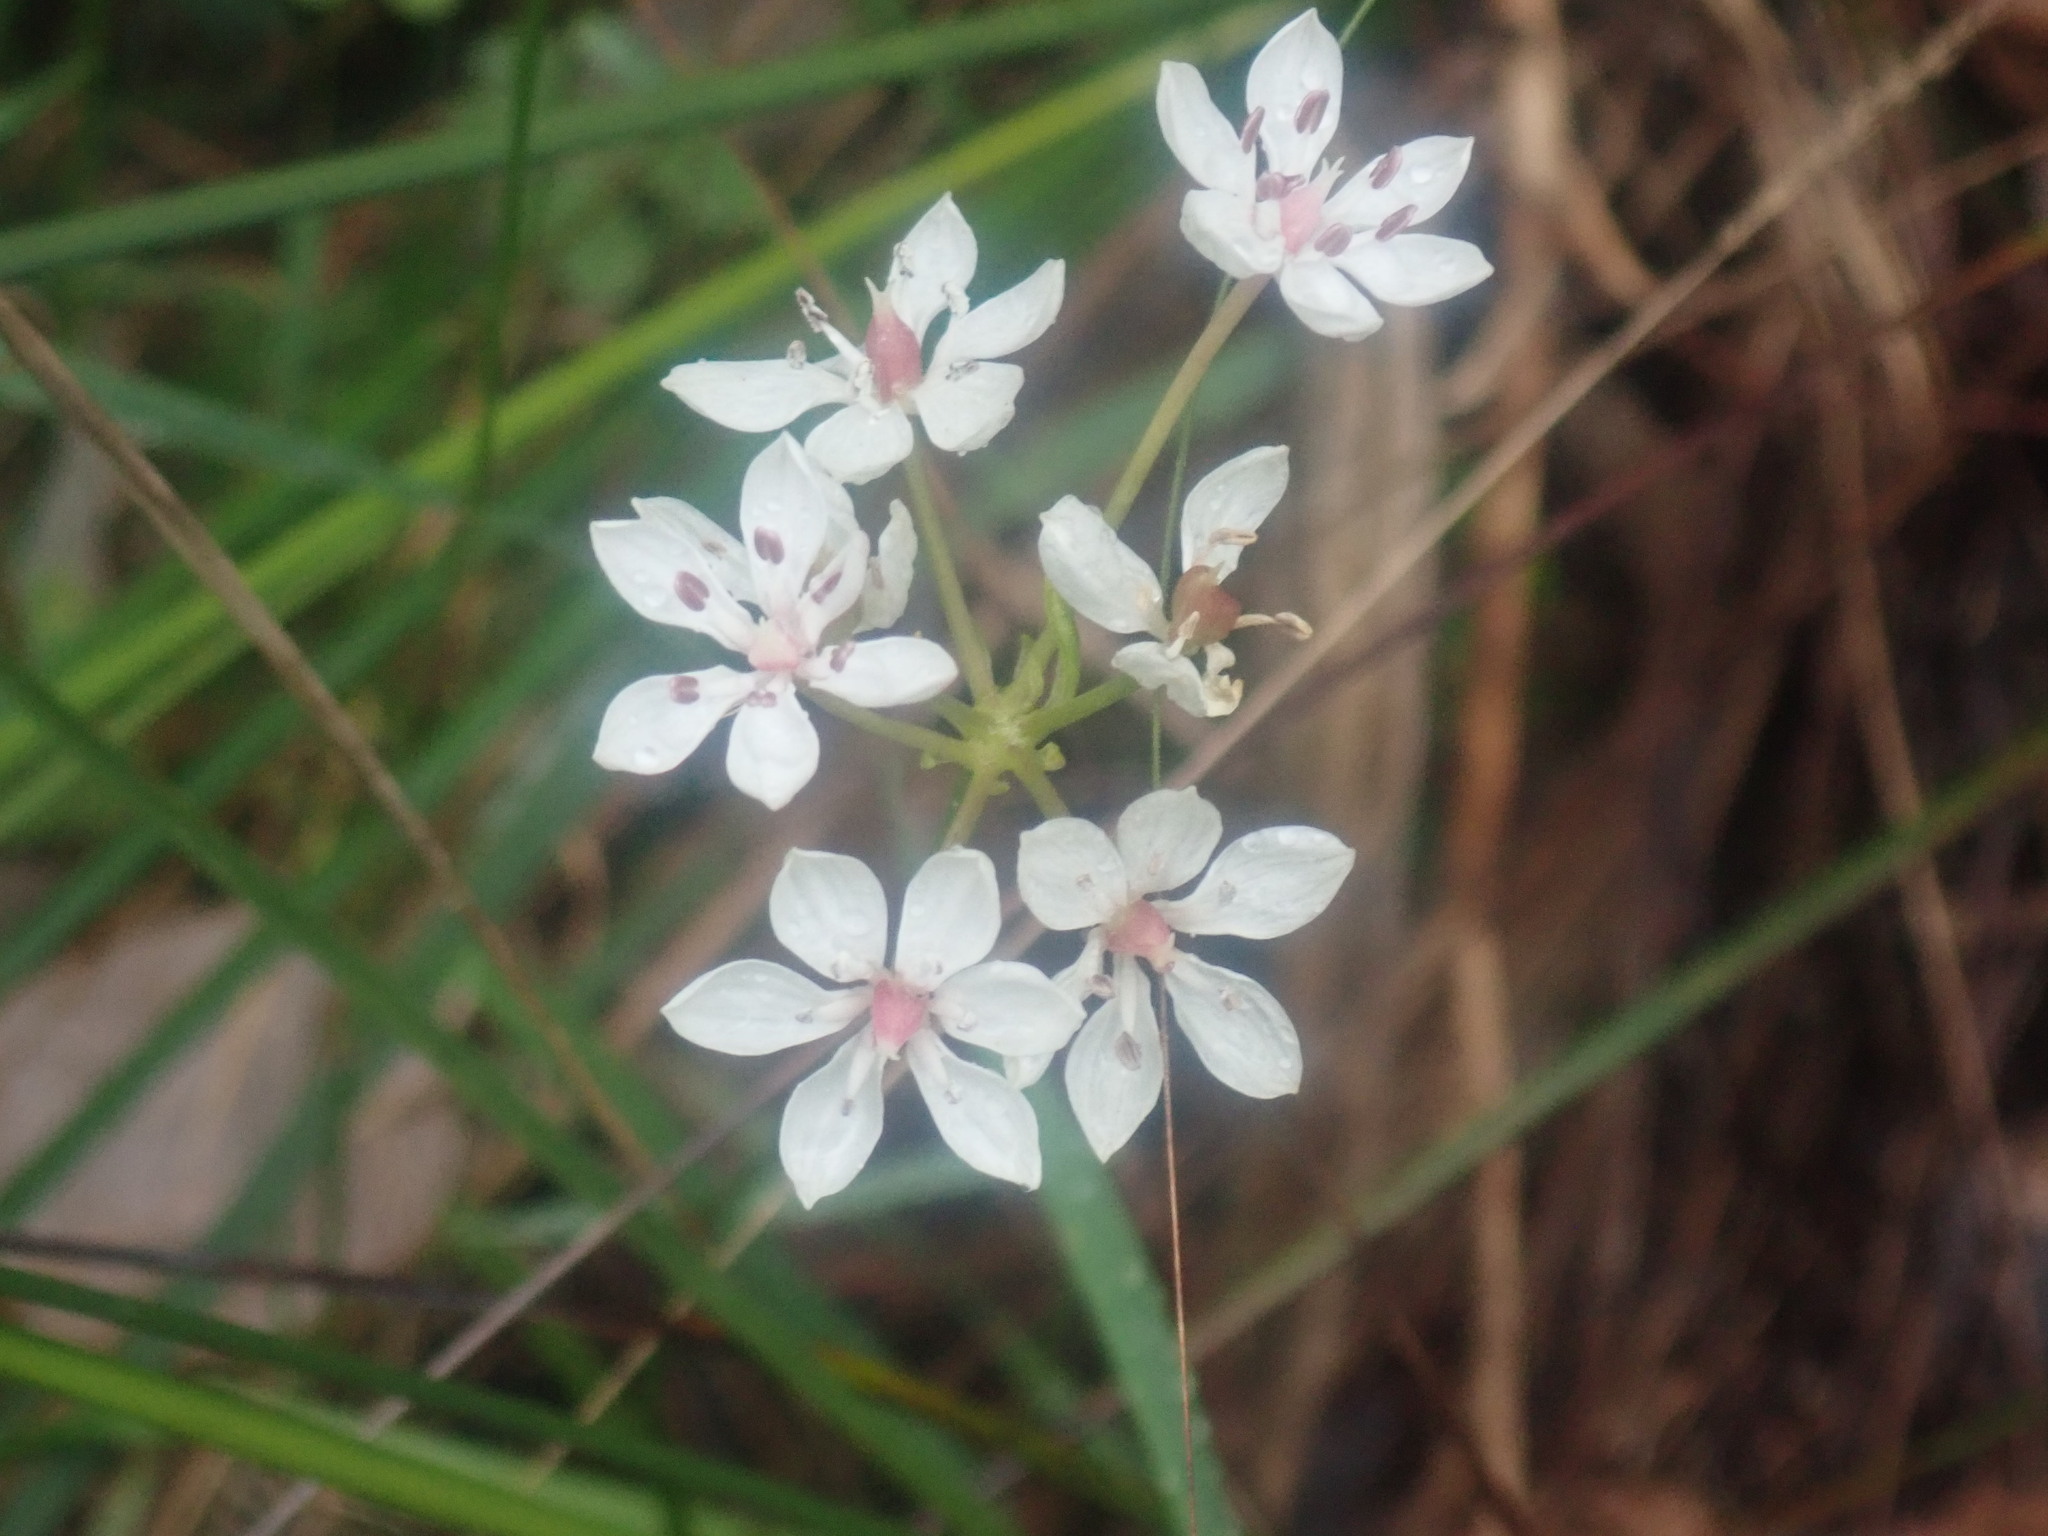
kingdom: Plantae
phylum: Tracheophyta
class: Liliopsida
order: Liliales
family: Colchicaceae
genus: Burchardia
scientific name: Burchardia umbellata
